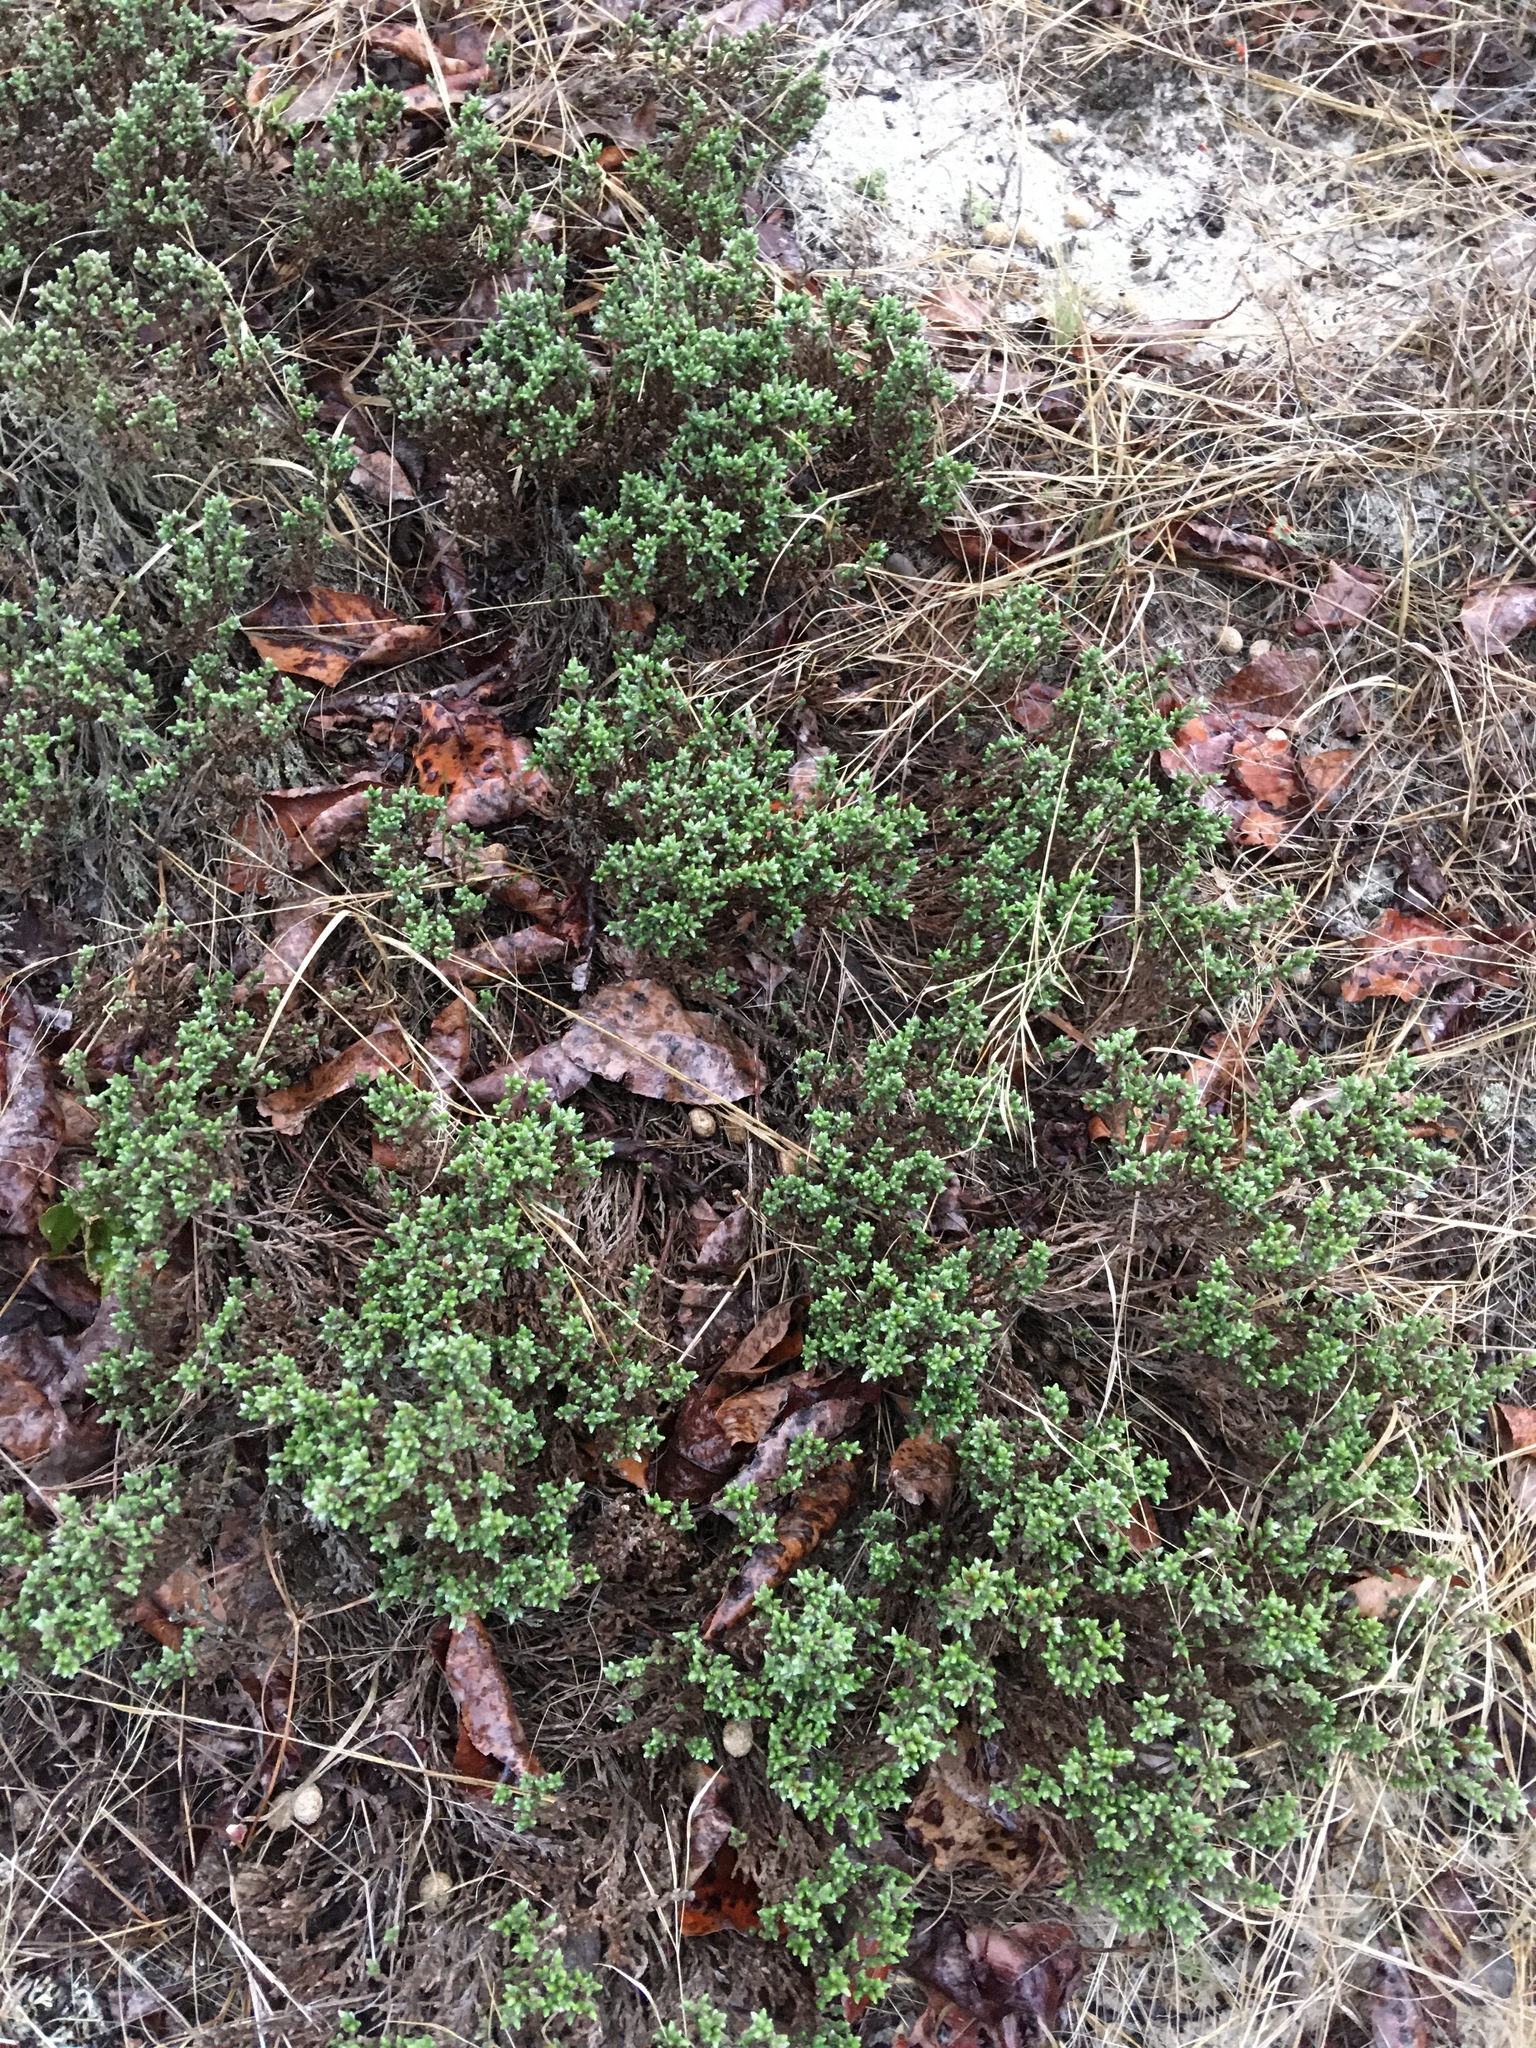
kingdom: Plantae
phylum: Tracheophyta
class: Magnoliopsida
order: Malvales
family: Cistaceae
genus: Hudsonia
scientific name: Hudsonia tomentosa
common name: Beach-heath
